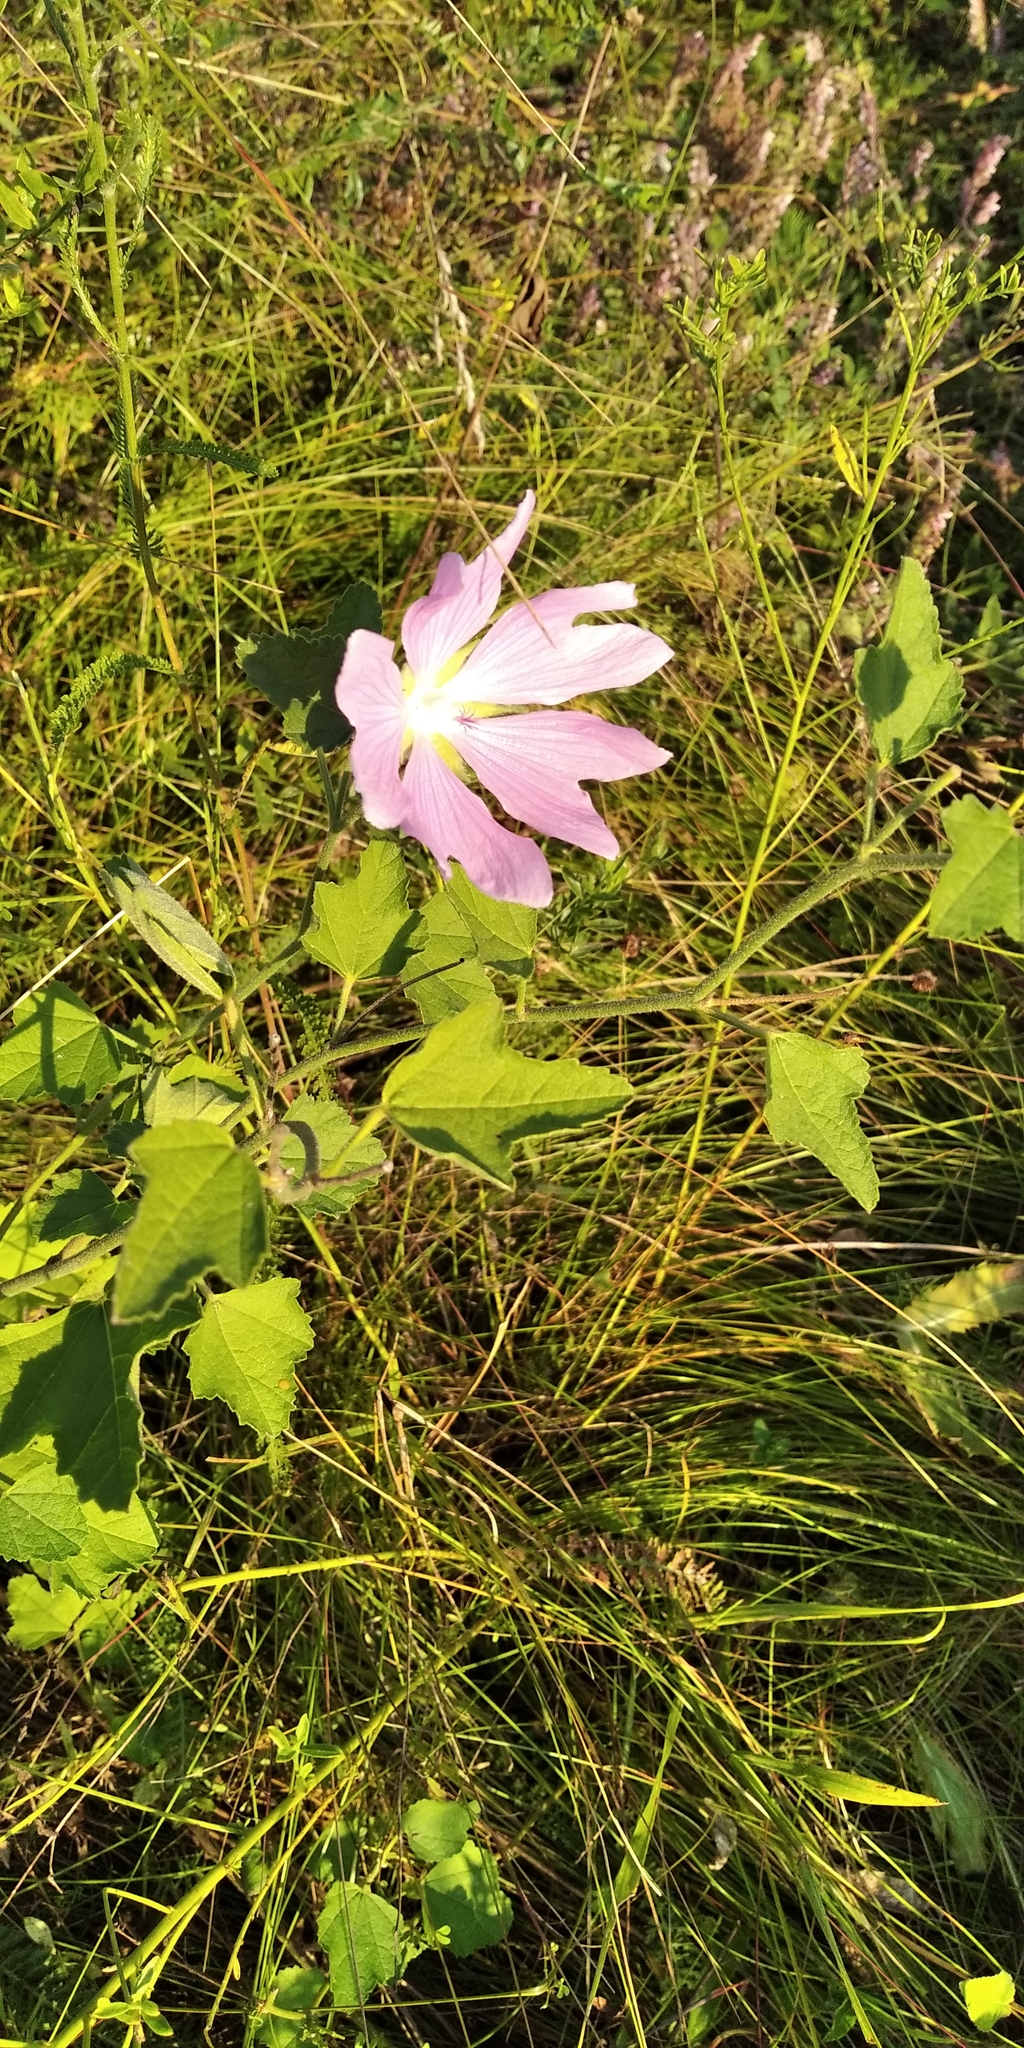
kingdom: Plantae
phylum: Tracheophyta
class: Magnoliopsida
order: Malvales
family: Malvaceae
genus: Malva
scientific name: Malva thuringiaca
